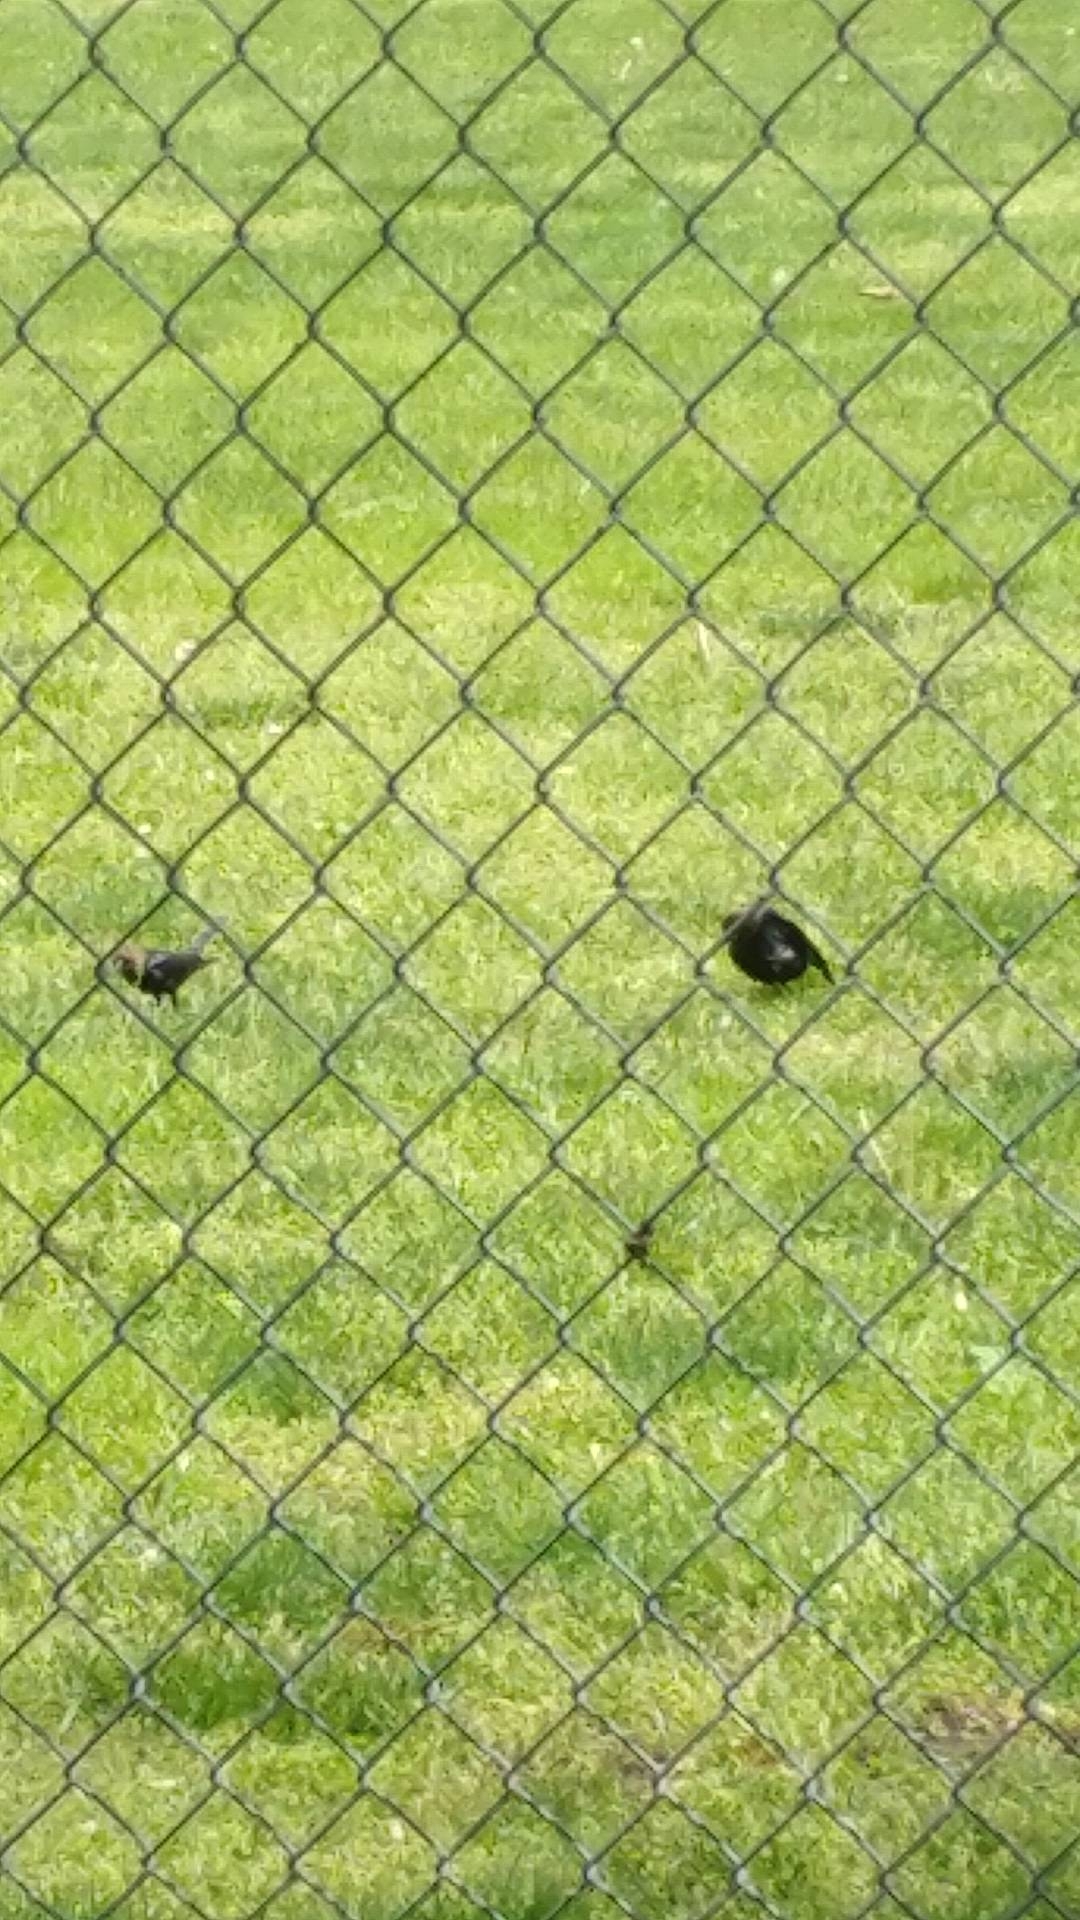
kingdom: Animalia
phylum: Chordata
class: Aves
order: Passeriformes
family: Icteridae
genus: Molothrus
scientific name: Molothrus ater
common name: Brown-headed cowbird
